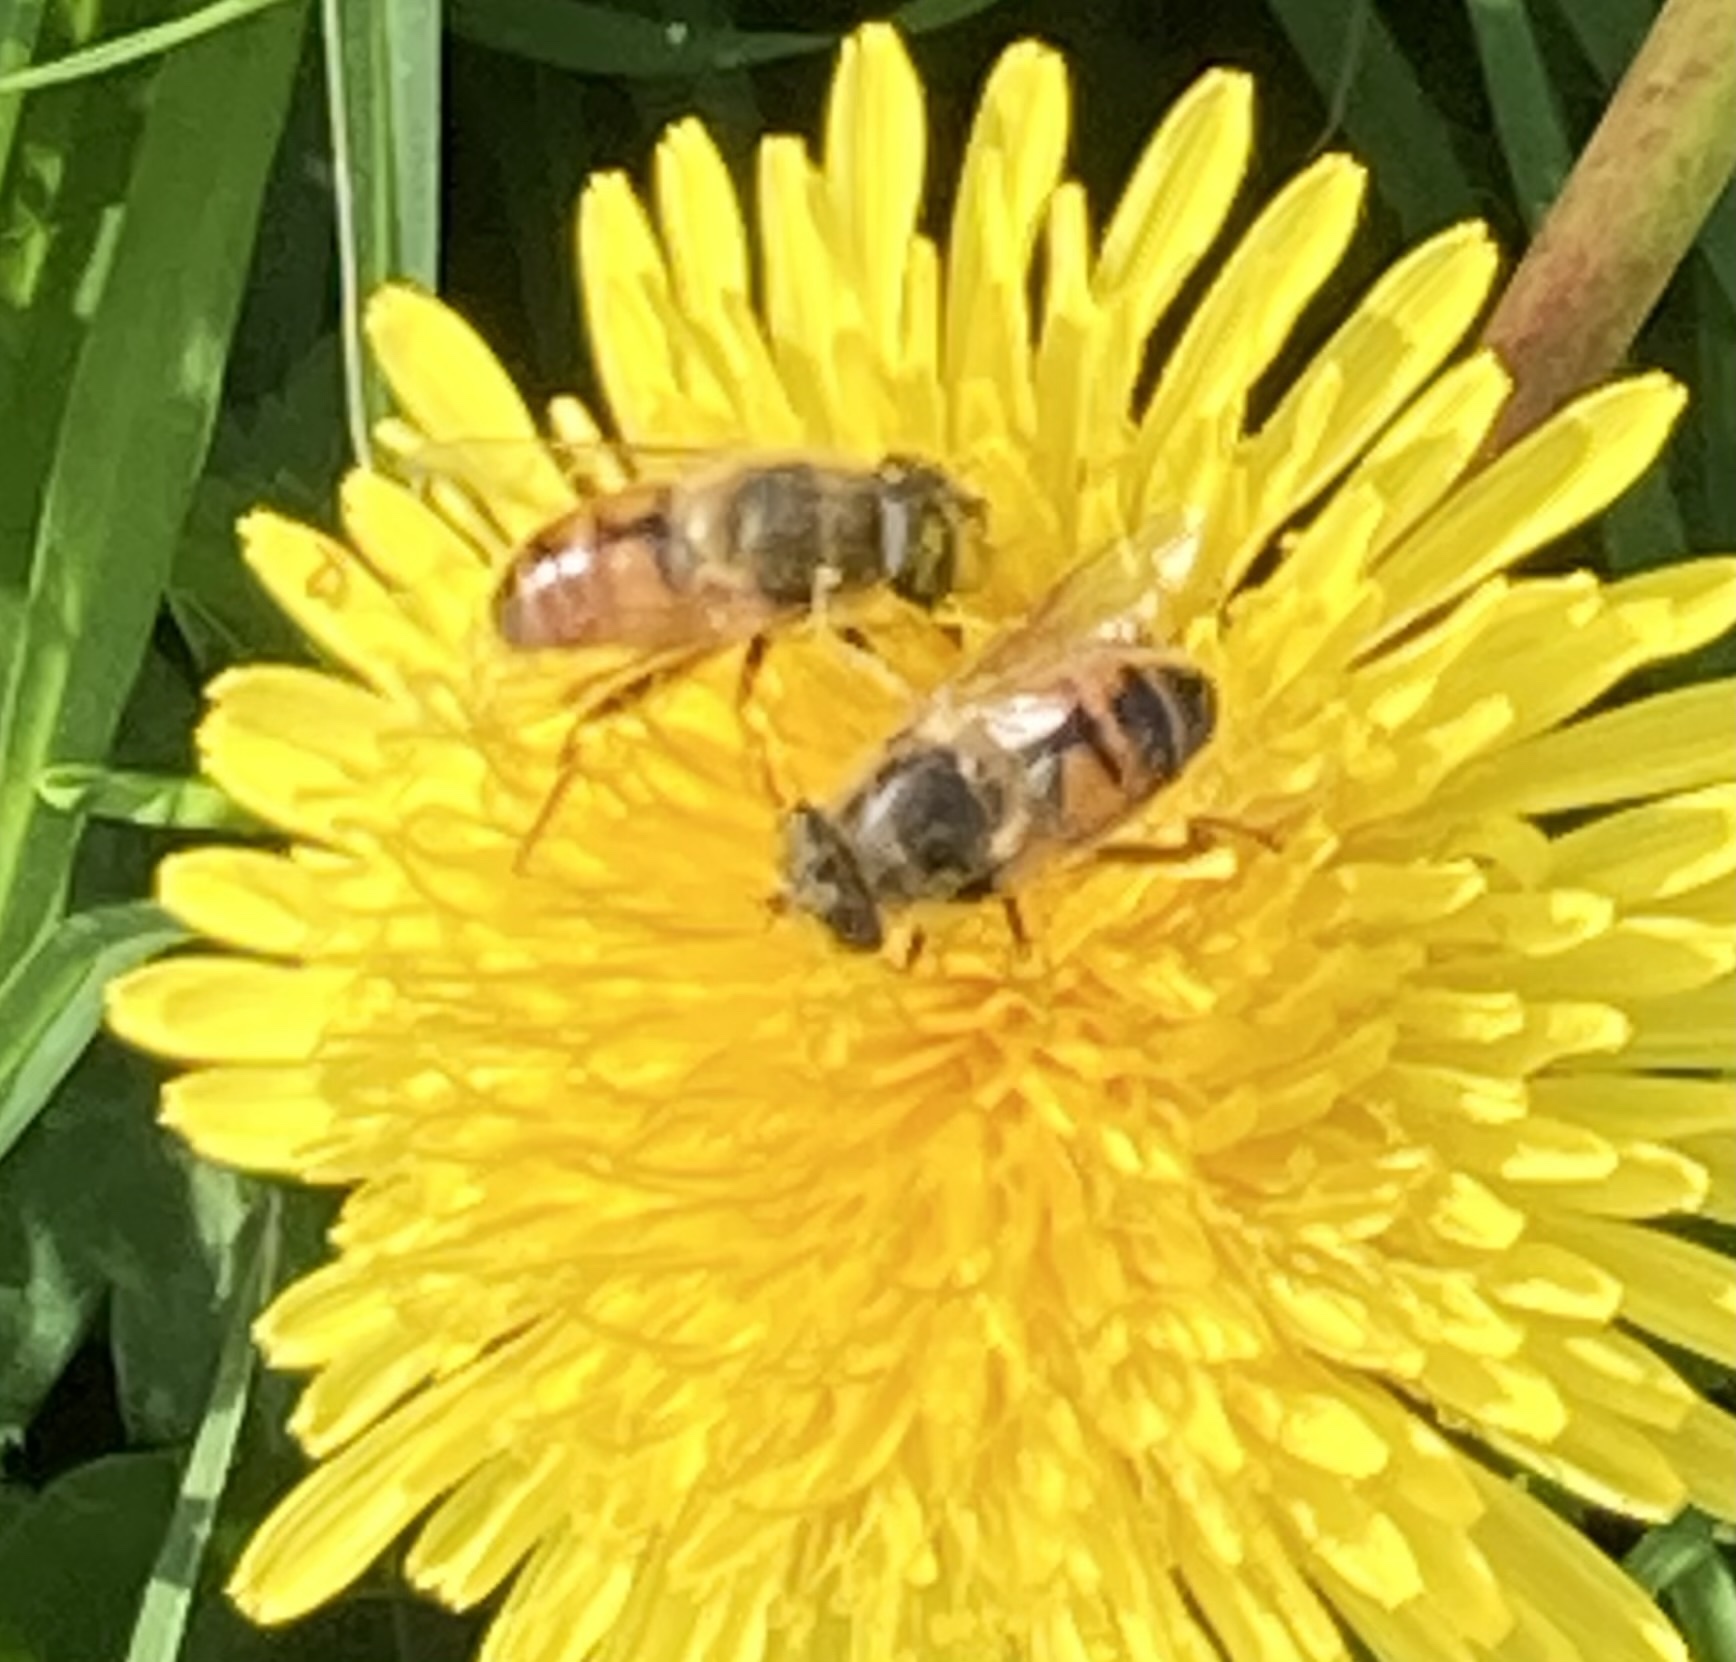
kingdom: Animalia
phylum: Arthropoda
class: Insecta
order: Diptera
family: Syrphidae
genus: Eristalis
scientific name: Eristalis tenax
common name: Drone fly
